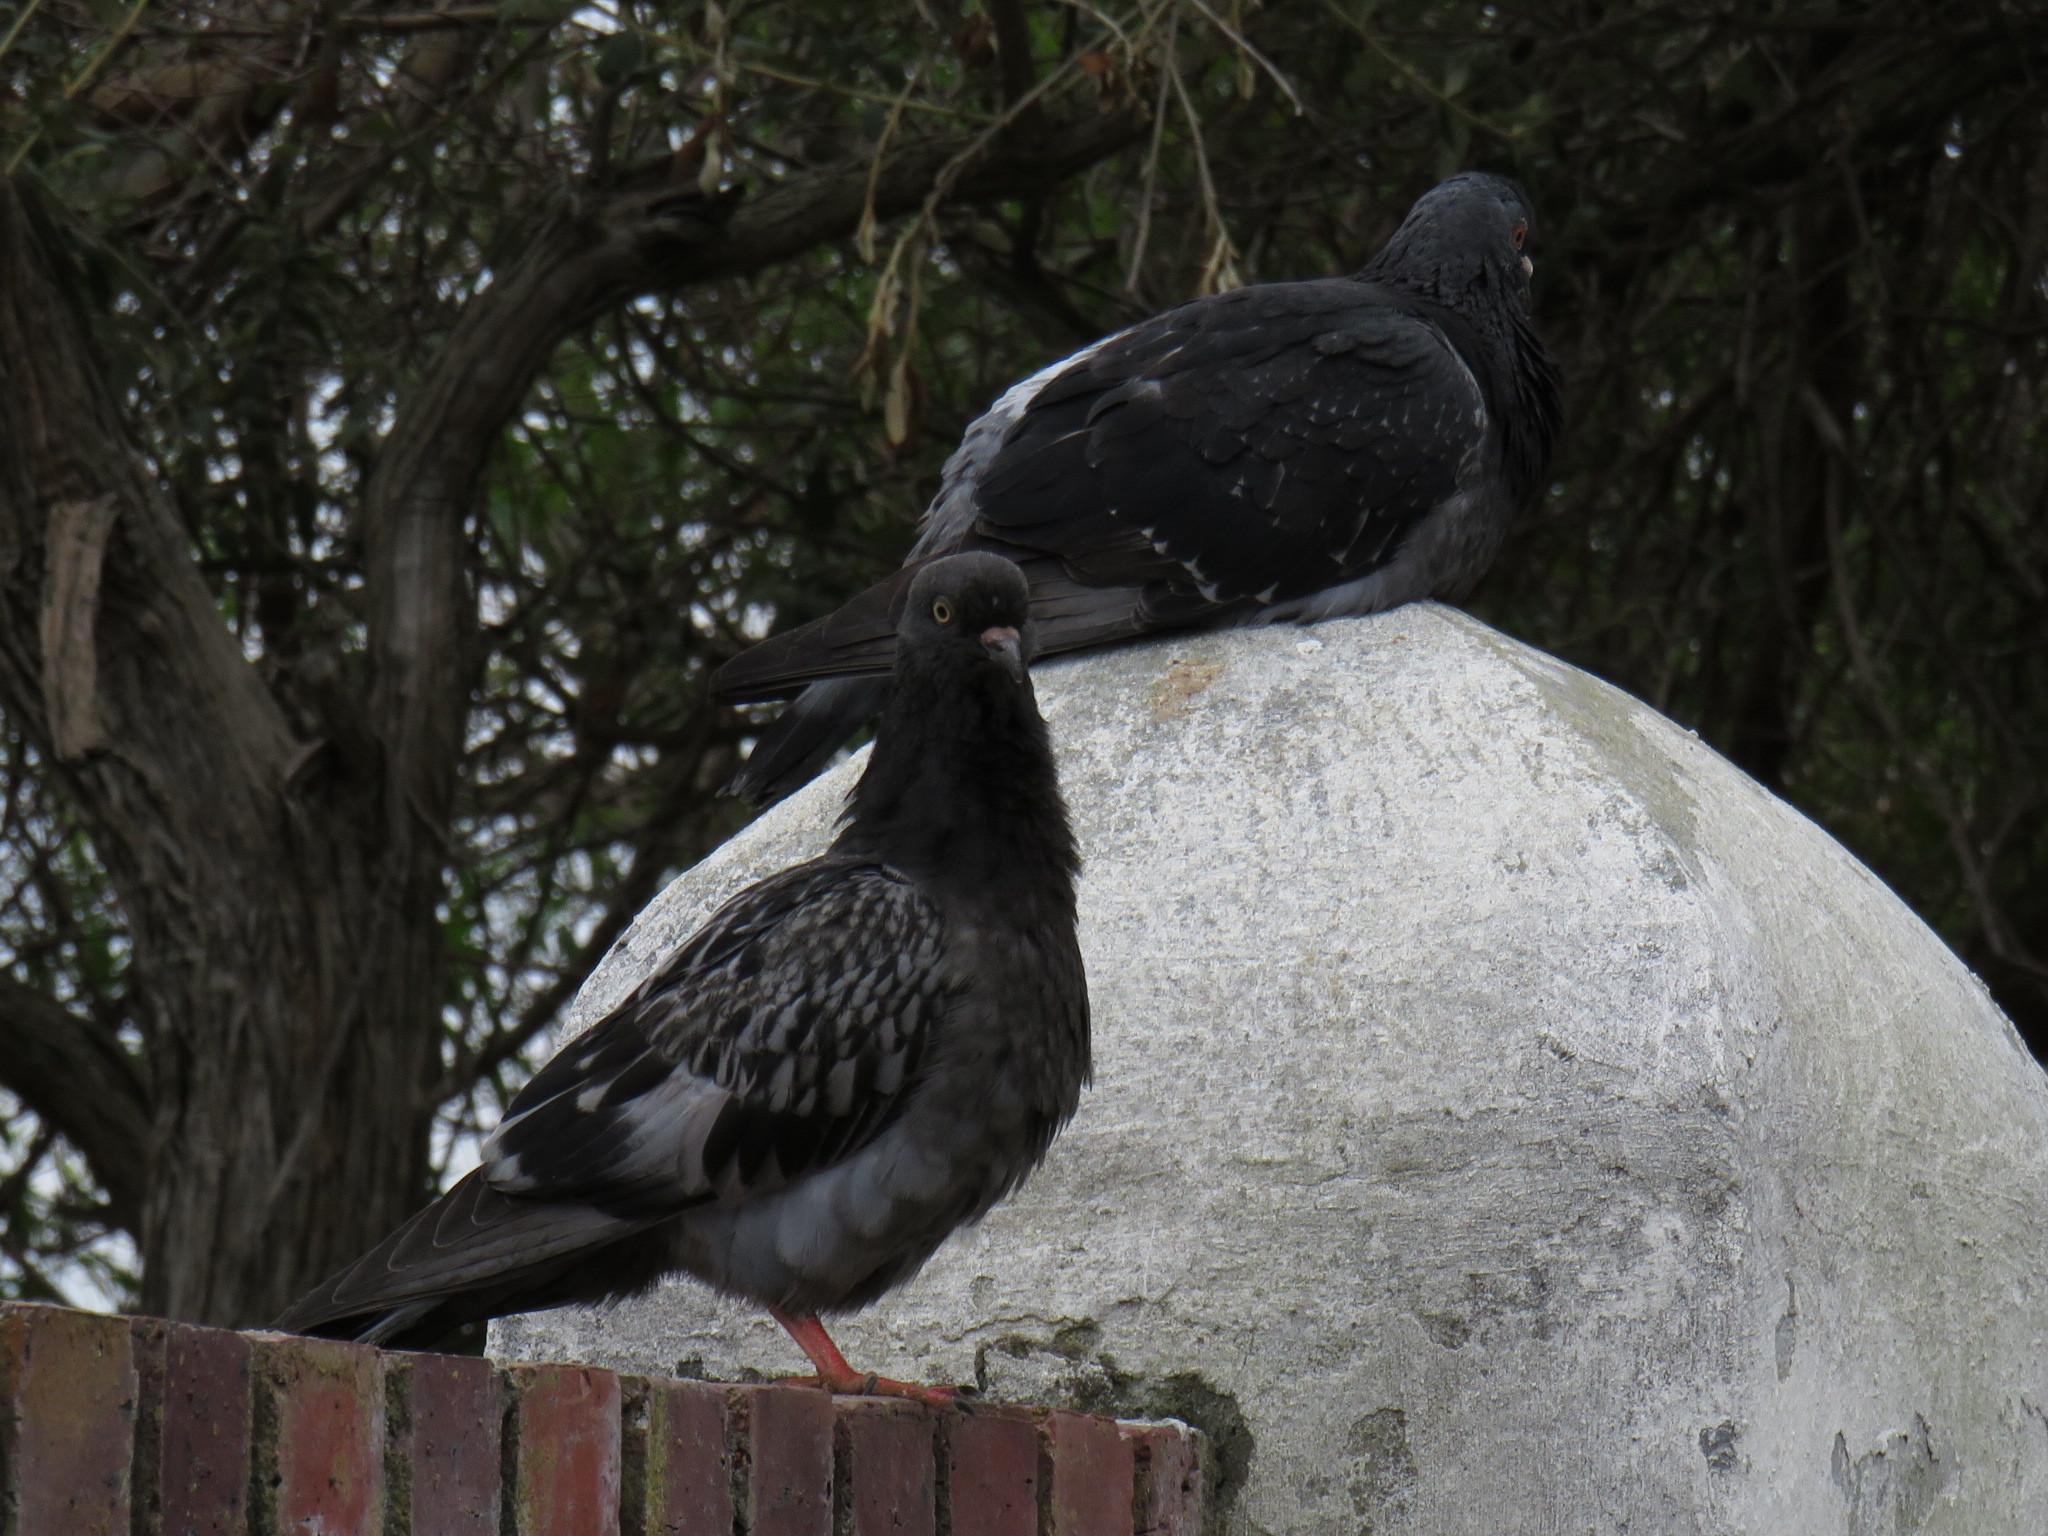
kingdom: Animalia
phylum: Chordata
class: Aves
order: Columbiformes
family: Columbidae
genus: Columba
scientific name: Columba livia
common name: Rock pigeon
